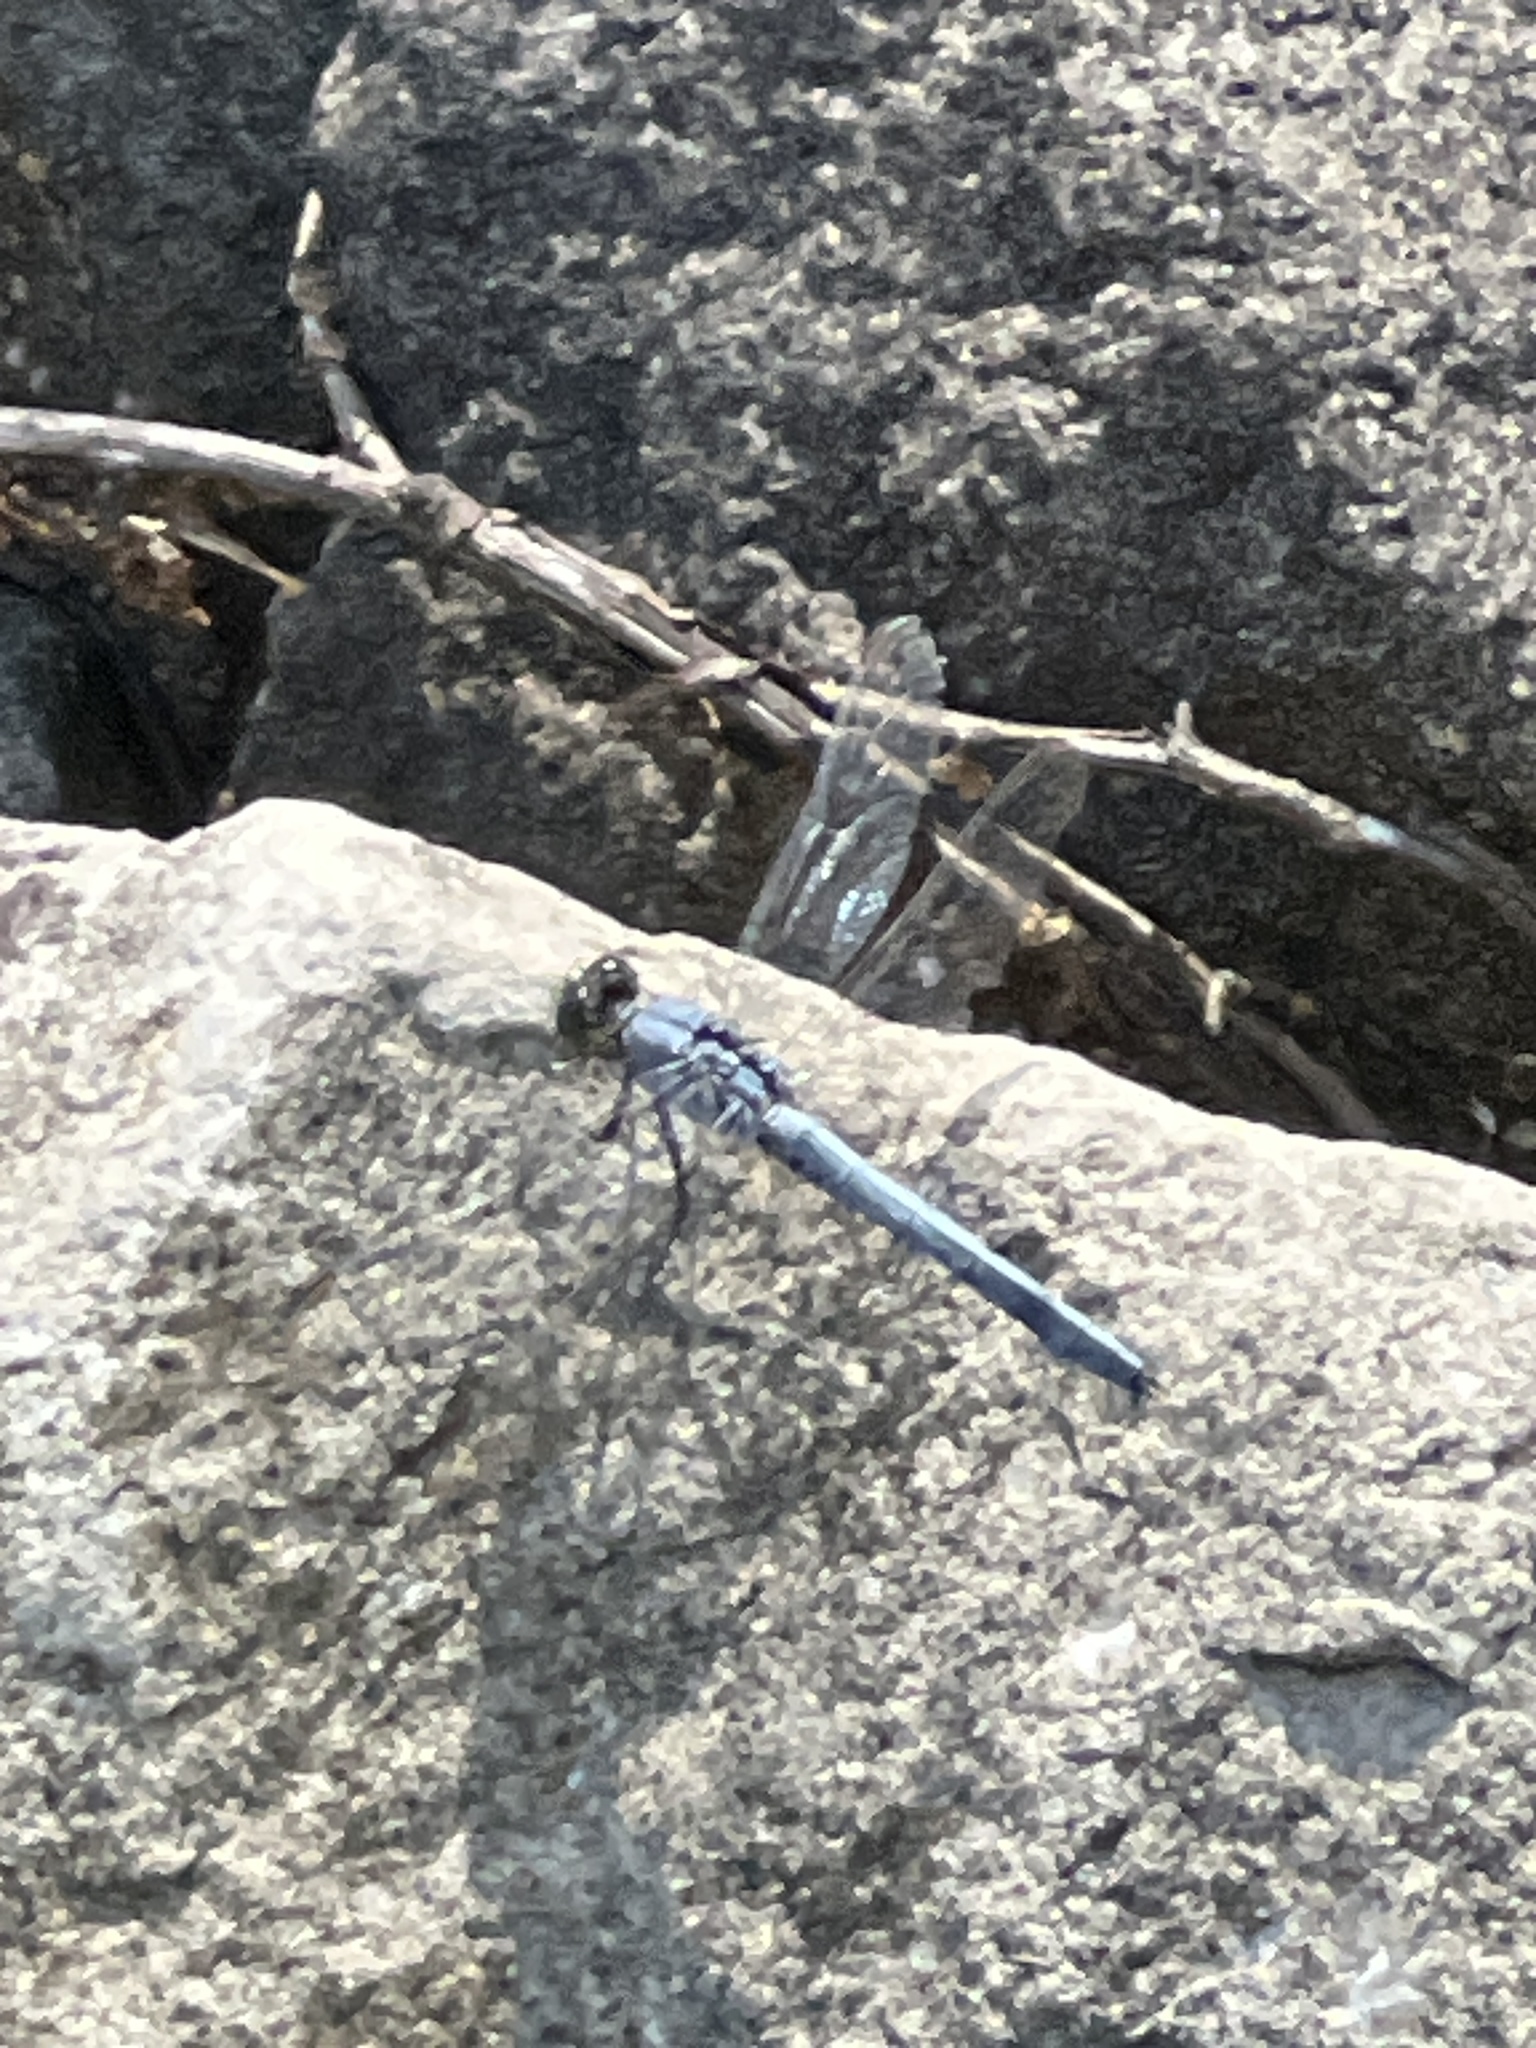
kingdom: Animalia
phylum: Arthropoda
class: Insecta
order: Odonata
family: Libellulidae
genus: Erythemis
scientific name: Erythemis simplicicollis
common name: Eastern pondhawk
